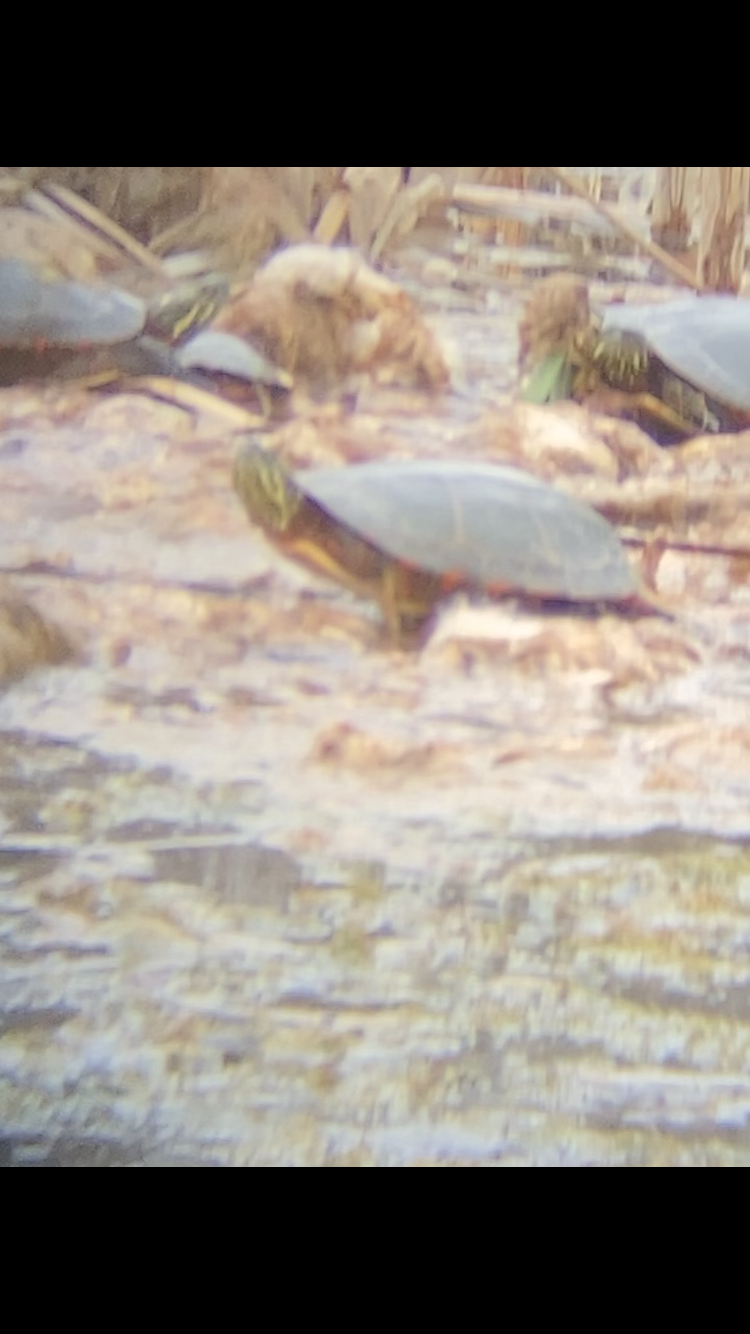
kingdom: Animalia
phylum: Chordata
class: Testudines
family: Emydidae
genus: Chrysemys
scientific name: Chrysemys picta
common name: Painted turtle
